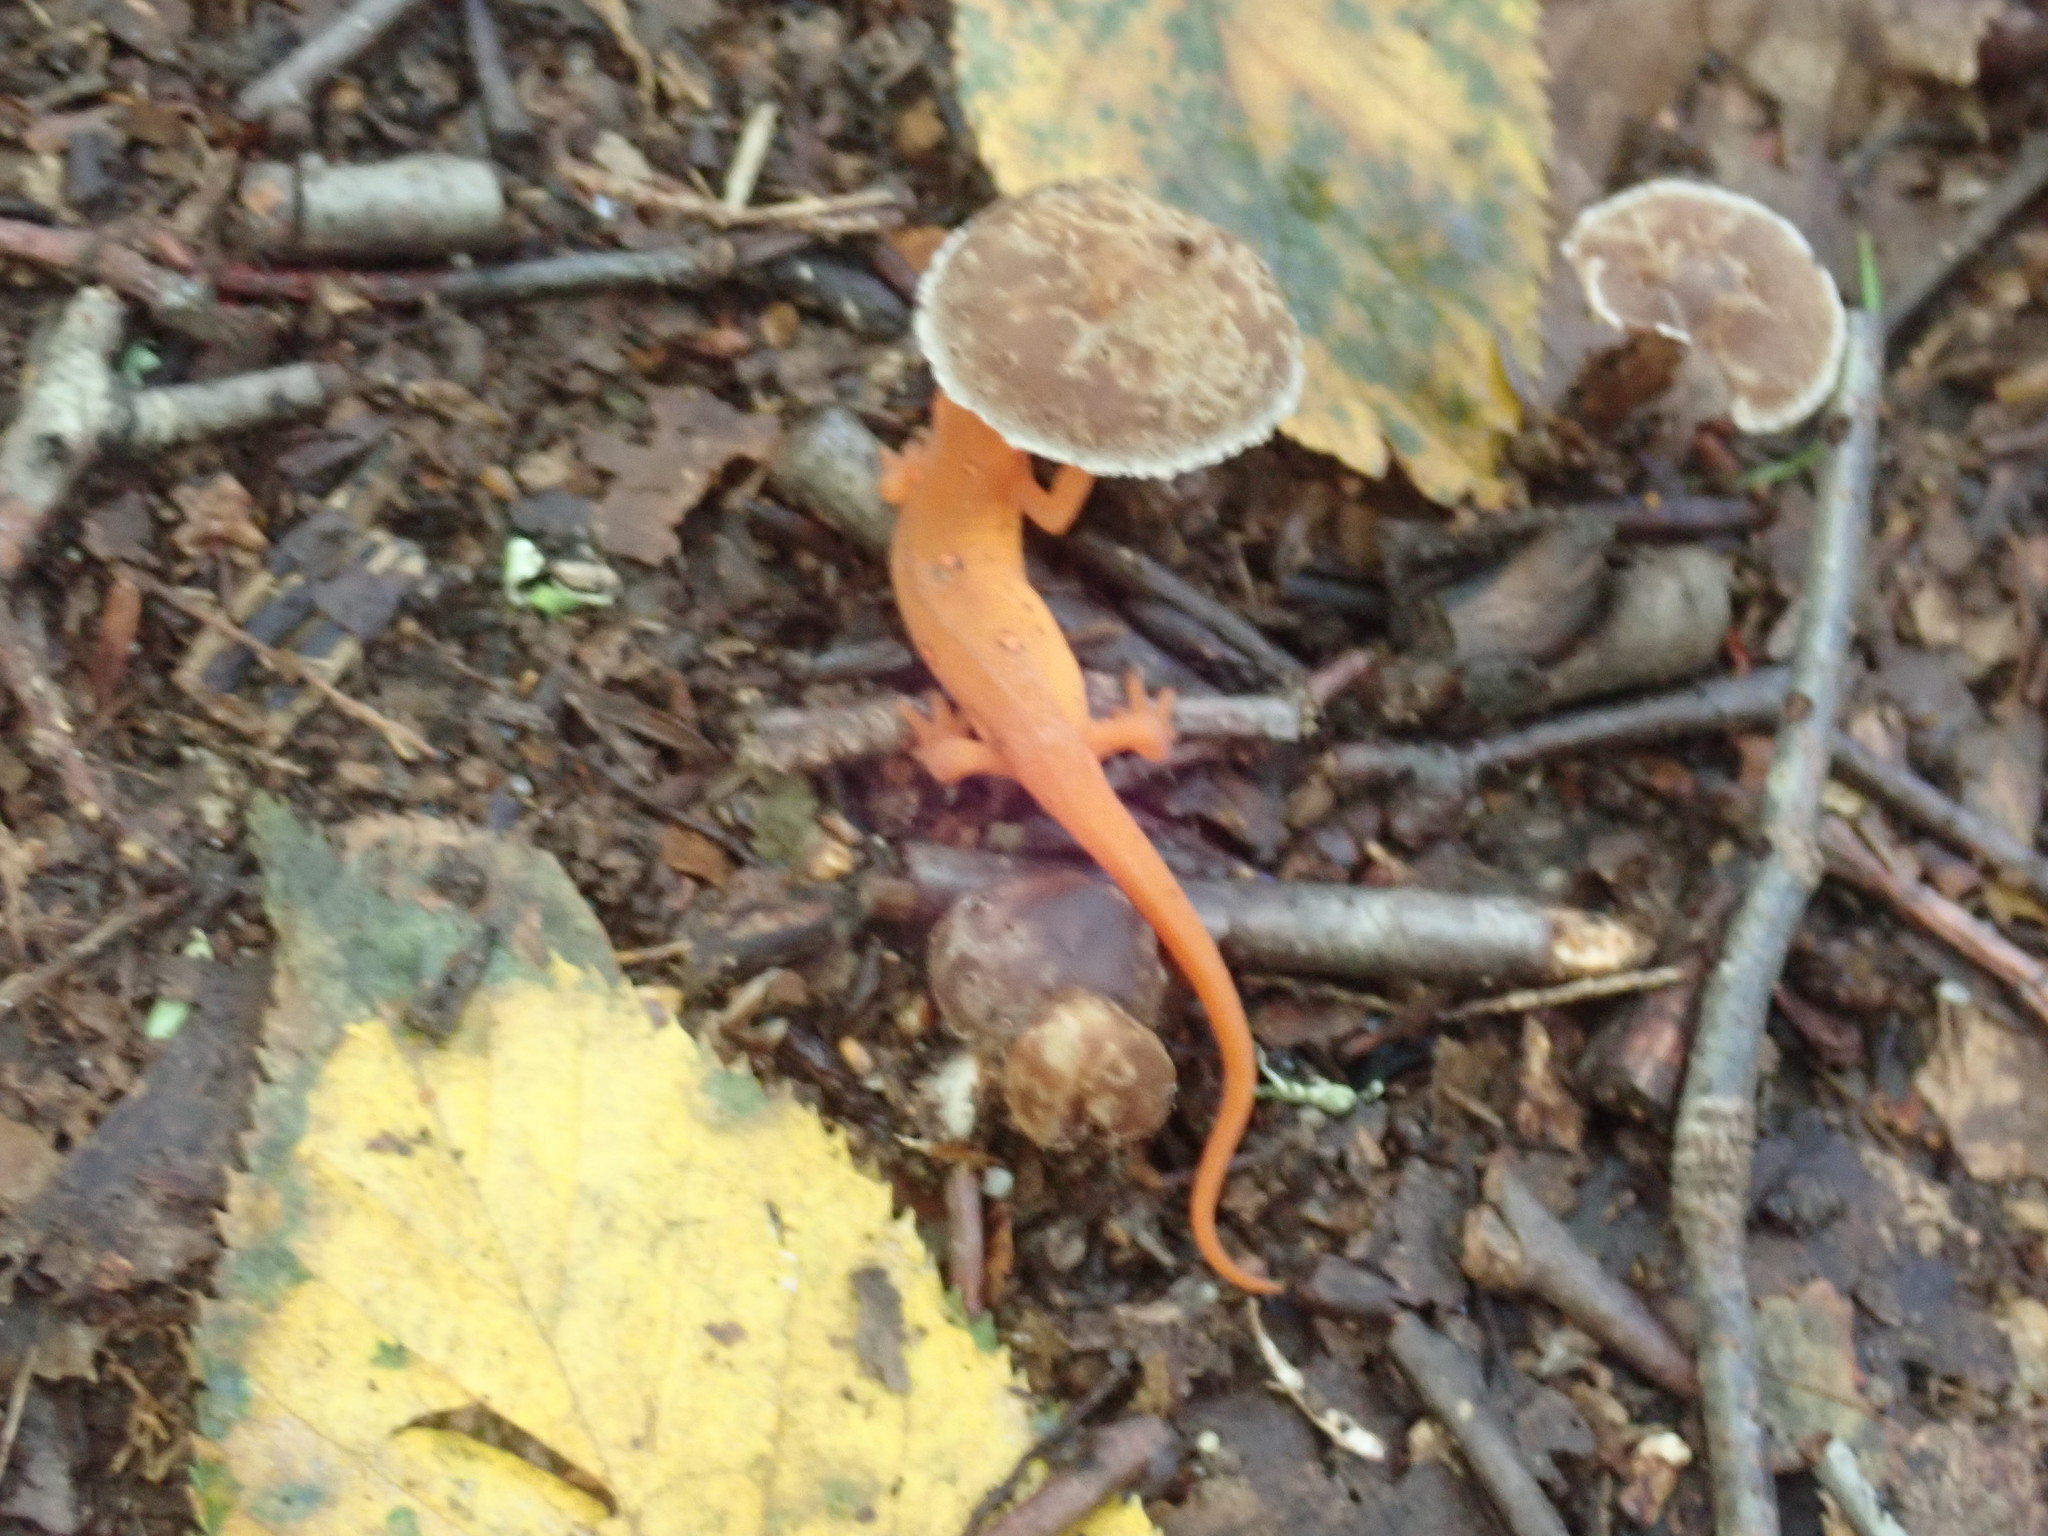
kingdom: Animalia
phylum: Chordata
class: Amphibia
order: Caudata
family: Salamandridae
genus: Notophthalmus
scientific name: Notophthalmus viridescens
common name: Eastern newt
